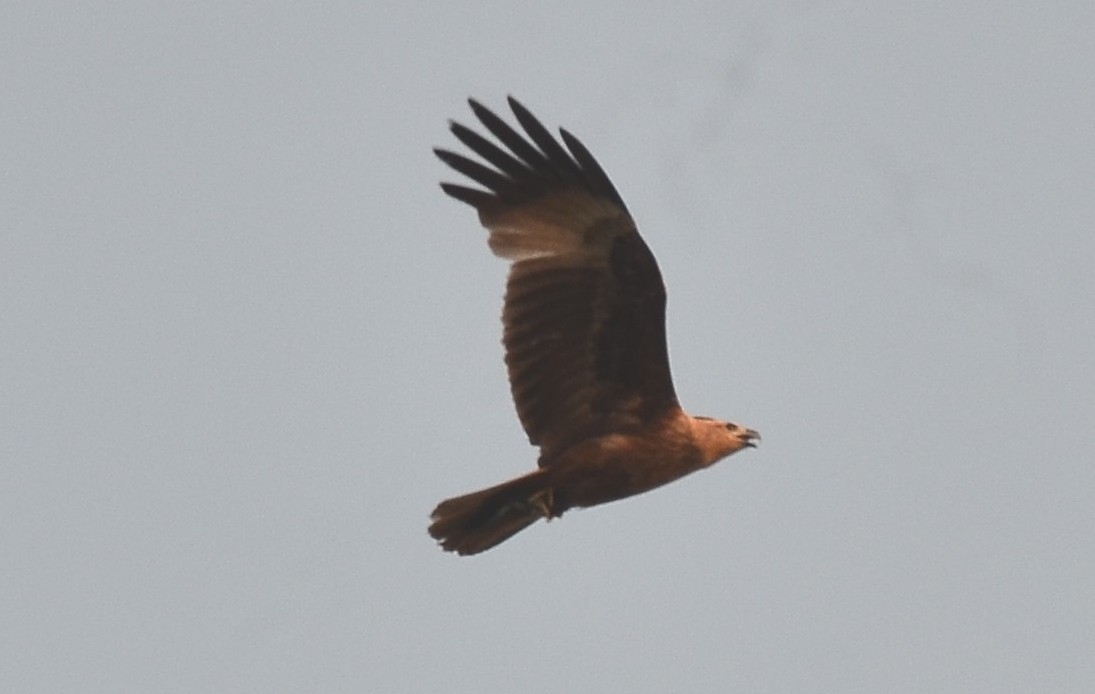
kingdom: Animalia
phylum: Chordata
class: Aves
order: Accipitriformes
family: Accipitridae
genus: Haliastur
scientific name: Haliastur indus
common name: Brahminy kite
